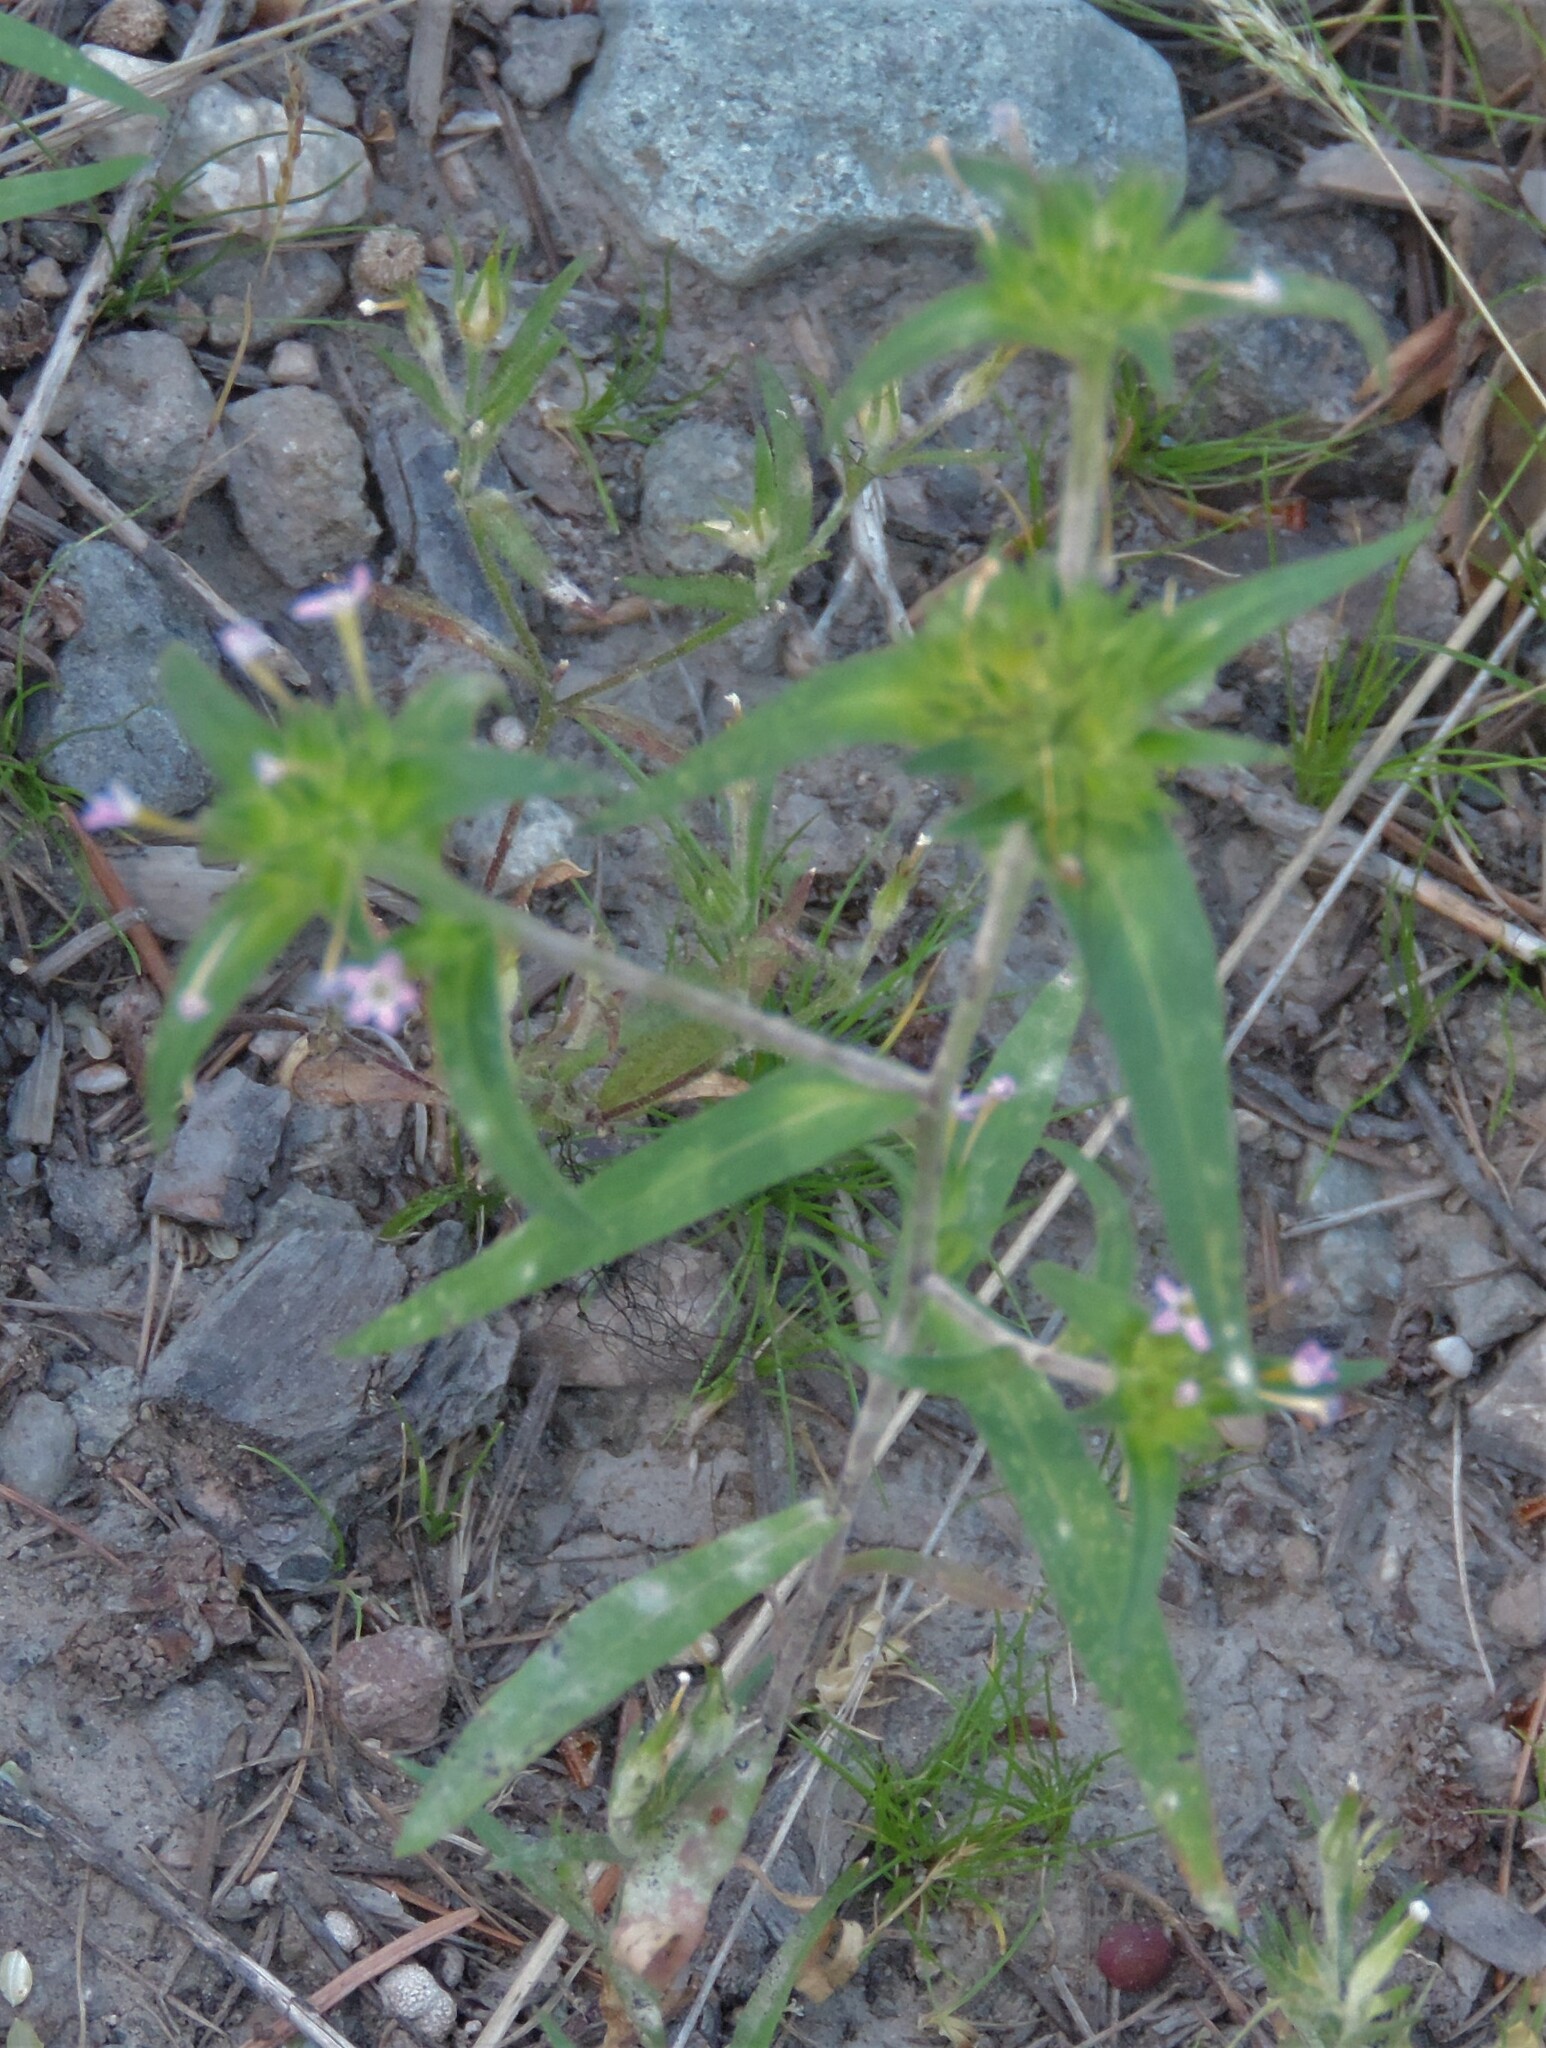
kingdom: Plantae
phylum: Tracheophyta
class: Magnoliopsida
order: Ericales
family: Polemoniaceae
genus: Collomia
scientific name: Collomia linearis
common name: Tiny trumpet
